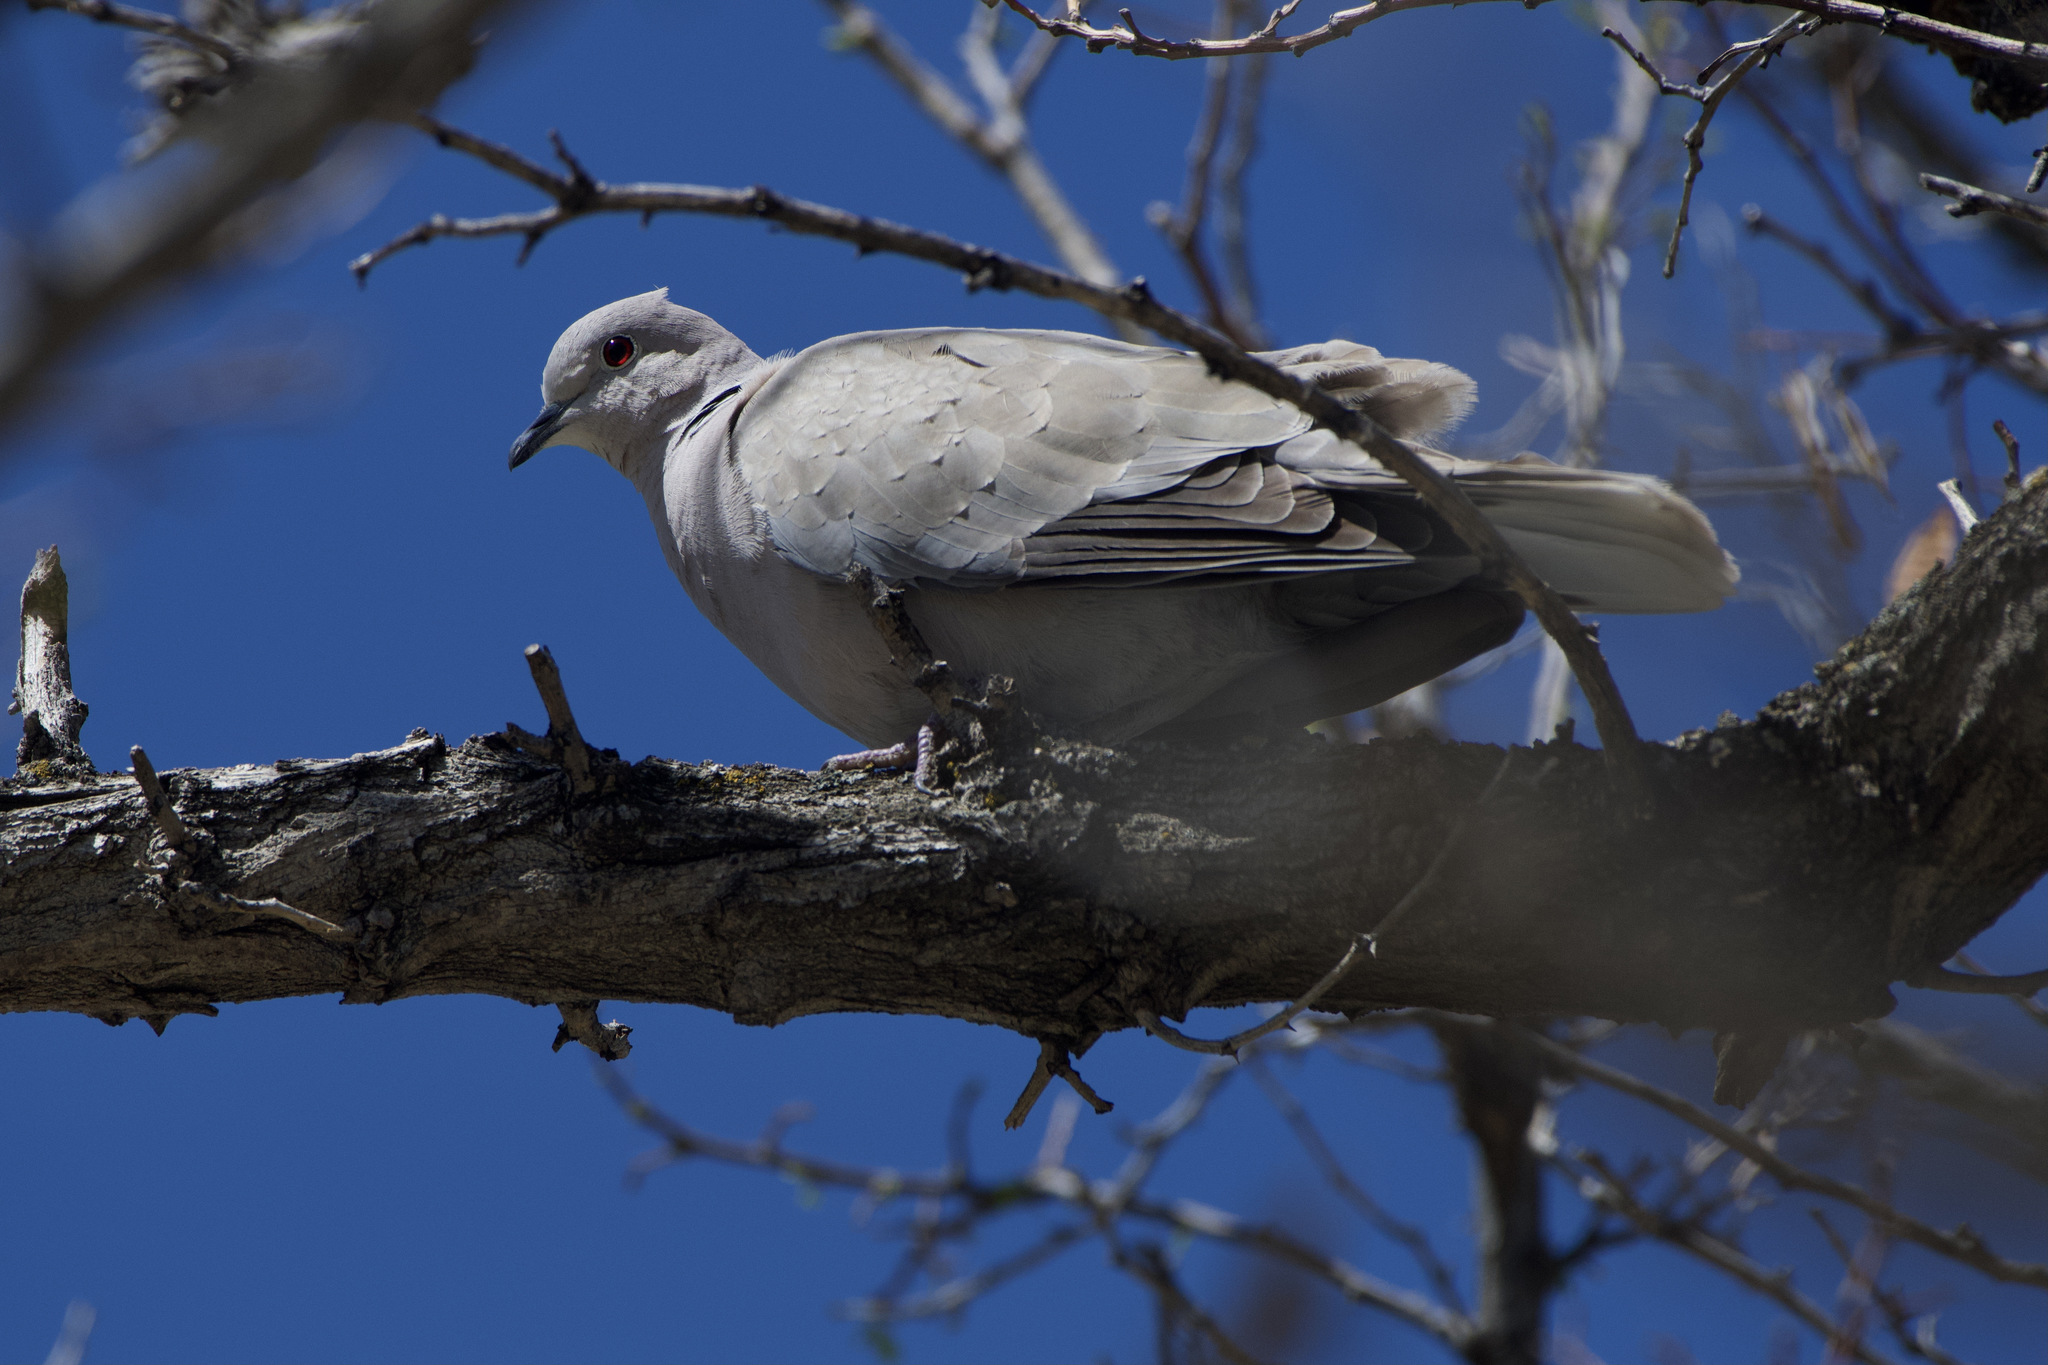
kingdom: Animalia
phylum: Chordata
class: Aves
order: Columbiformes
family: Columbidae
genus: Streptopelia
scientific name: Streptopelia decaocto
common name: Eurasian collared dove
